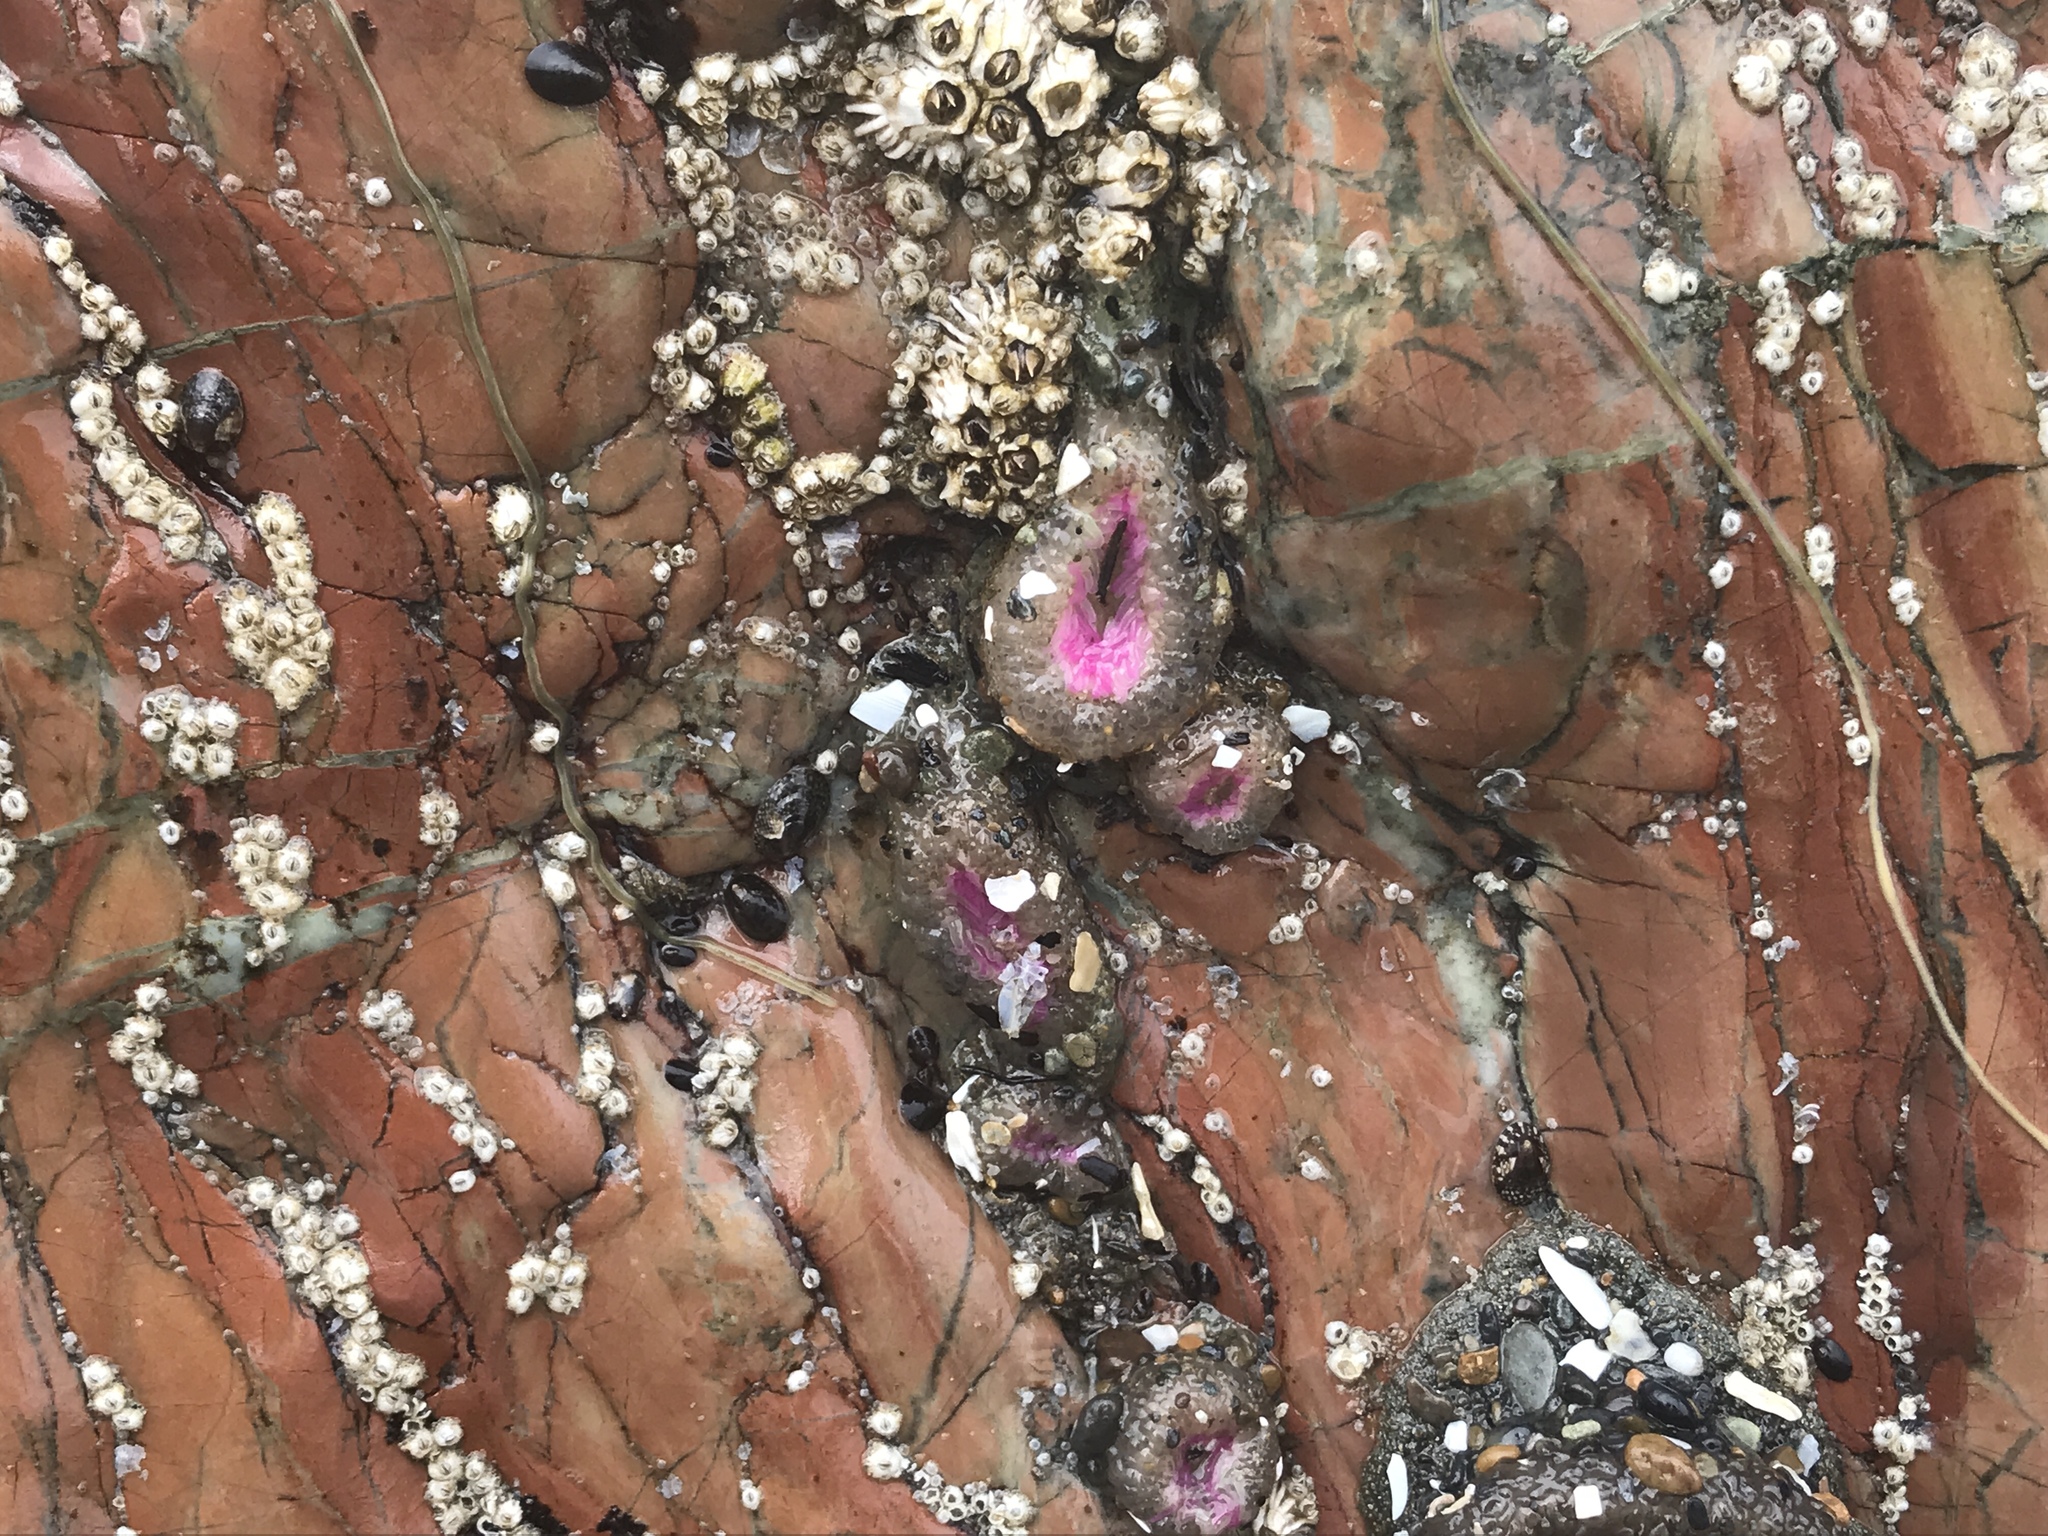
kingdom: Animalia
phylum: Cnidaria
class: Anthozoa
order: Actiniaria
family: Actiniidae
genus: Anthopleura
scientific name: Anthopleura elegantissima
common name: Clonal anemone
